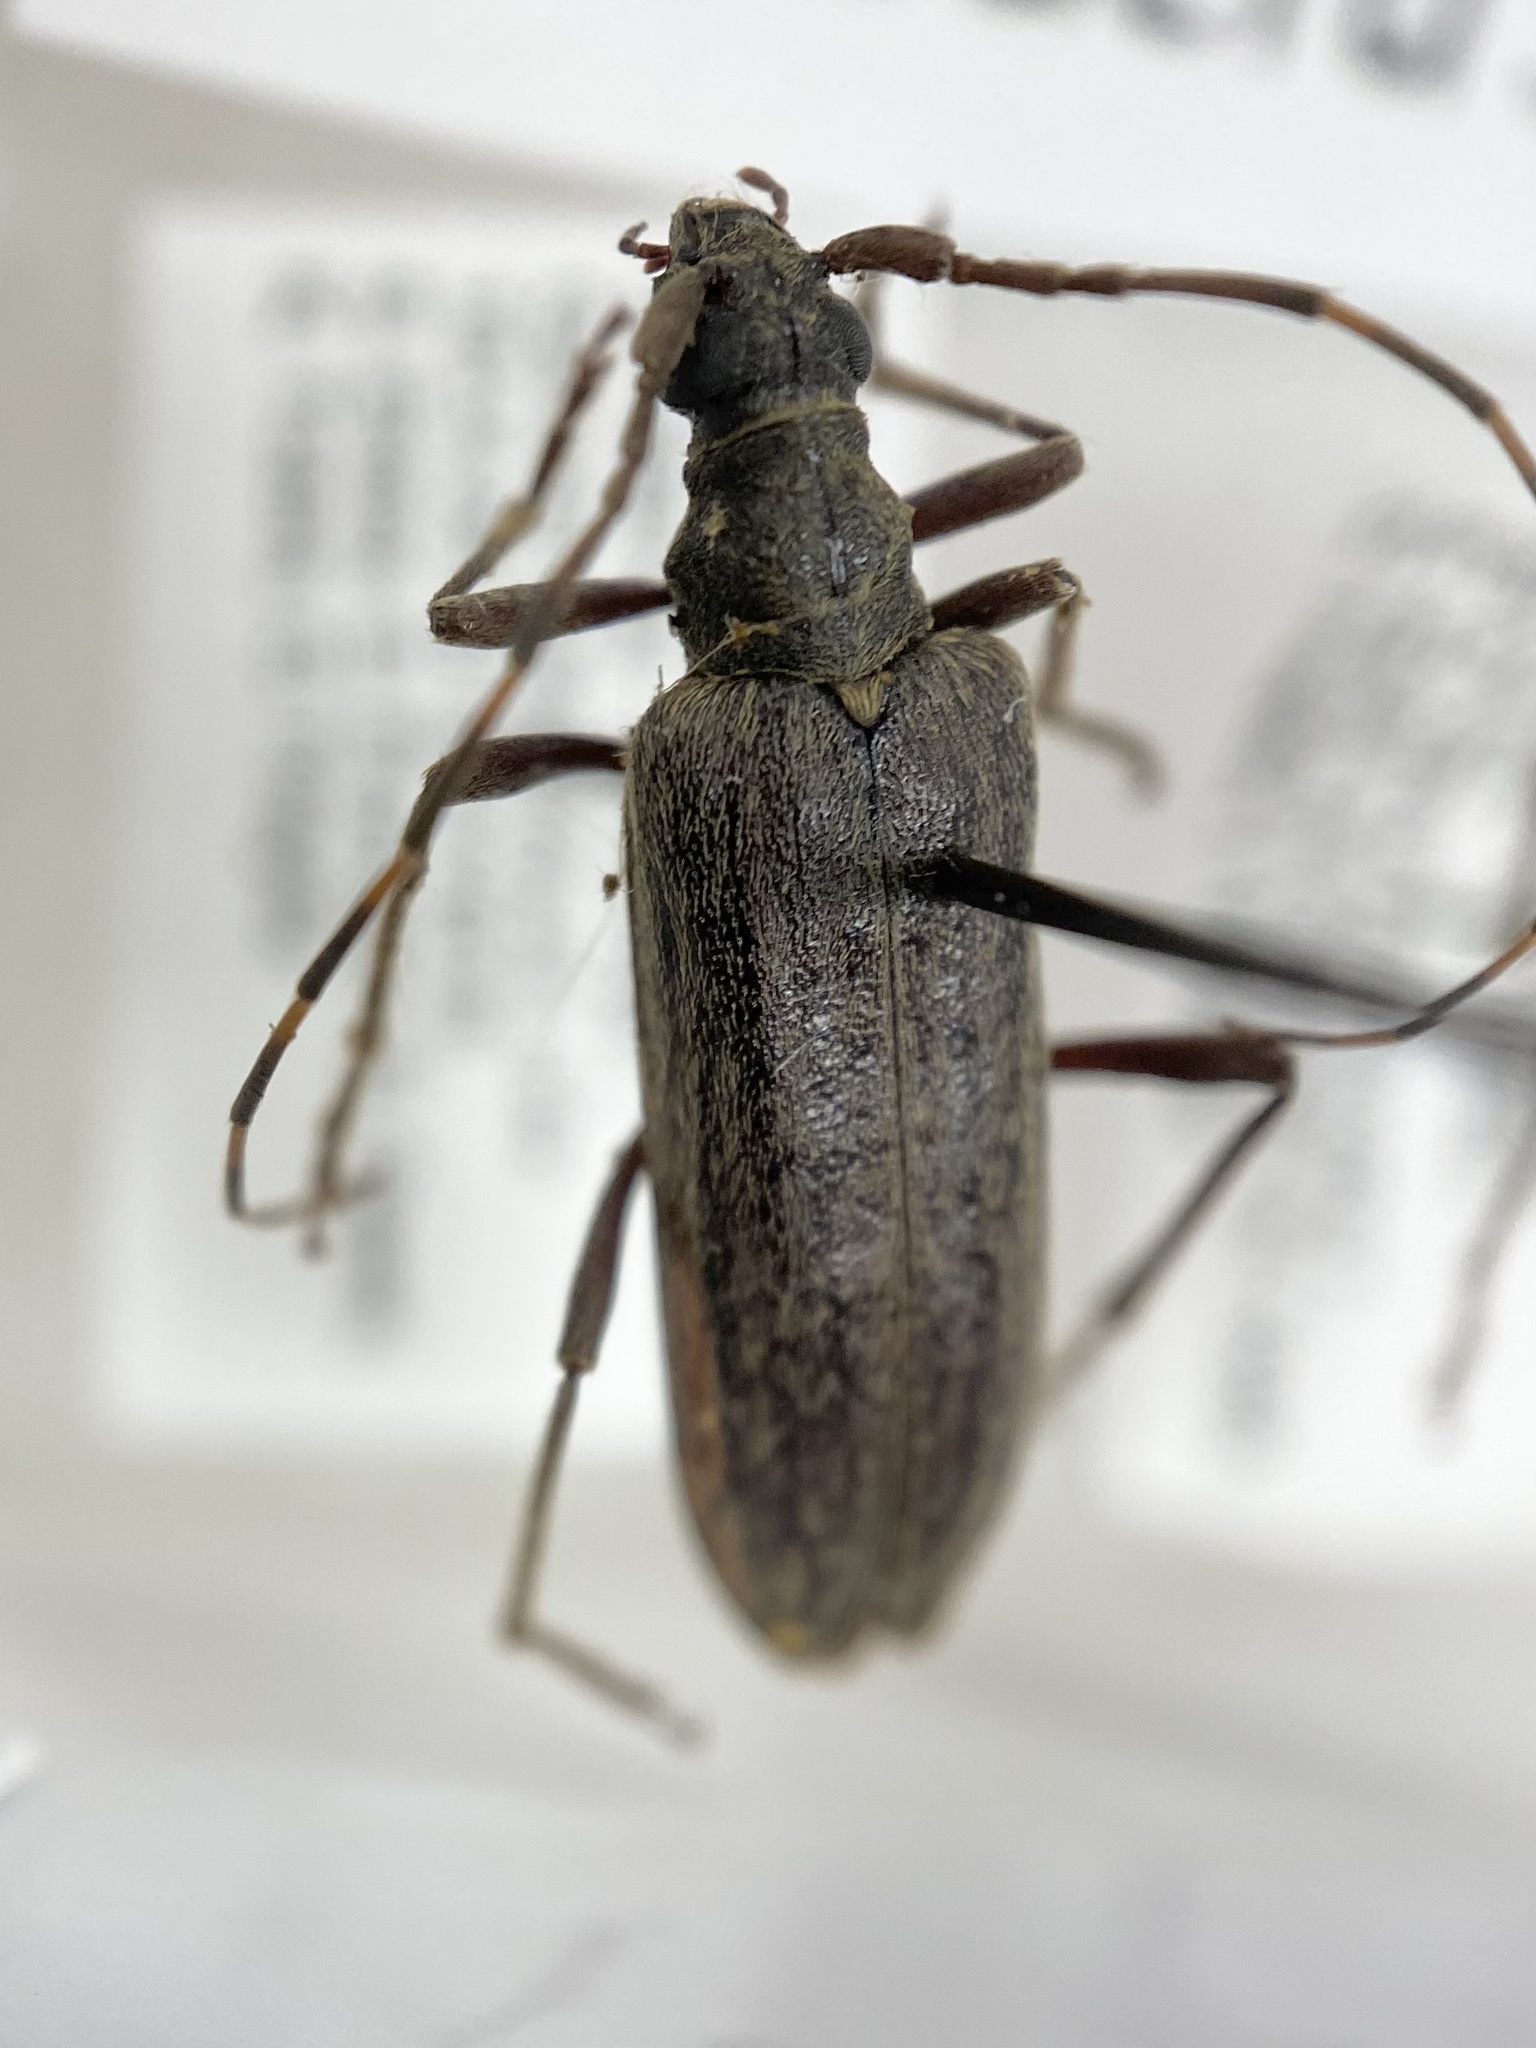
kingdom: Animalia
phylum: Arthropoda
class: Insecta
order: Coleoptera
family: Cerambycidae
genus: Centrodera
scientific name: Centrodera sublineata
